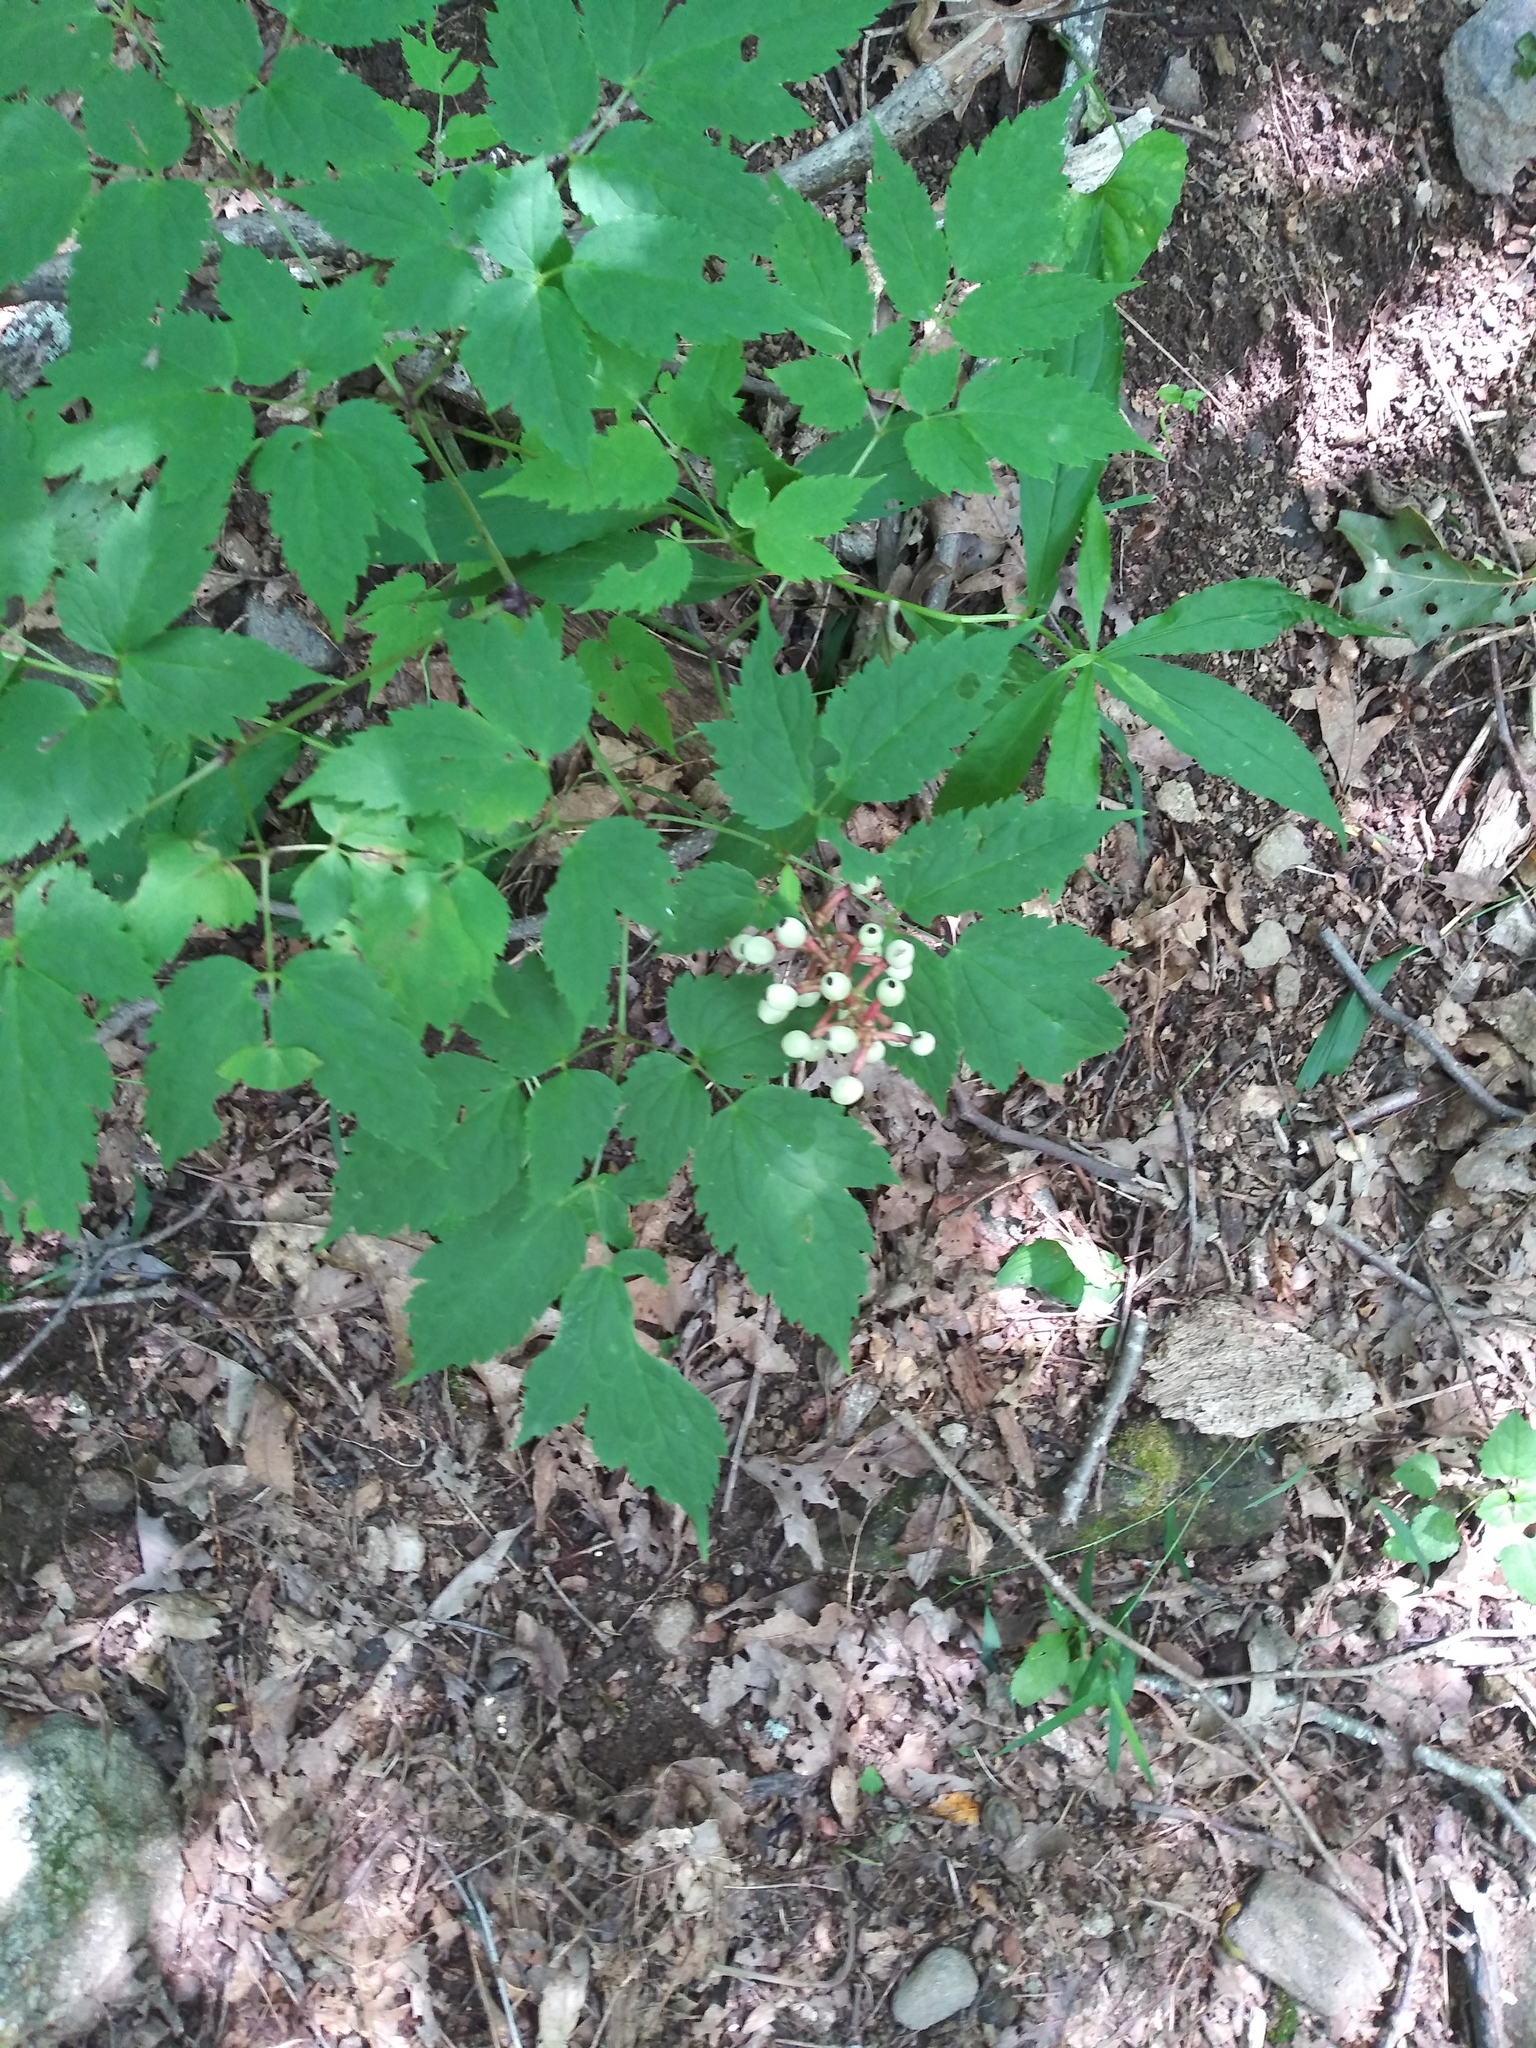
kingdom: Plantae
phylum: Tracheophyta
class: Magnoliopsida
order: Ranunculales
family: Ranunculaceae
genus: Actaea
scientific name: Actaea pachypoda
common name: Doll's-eyes
